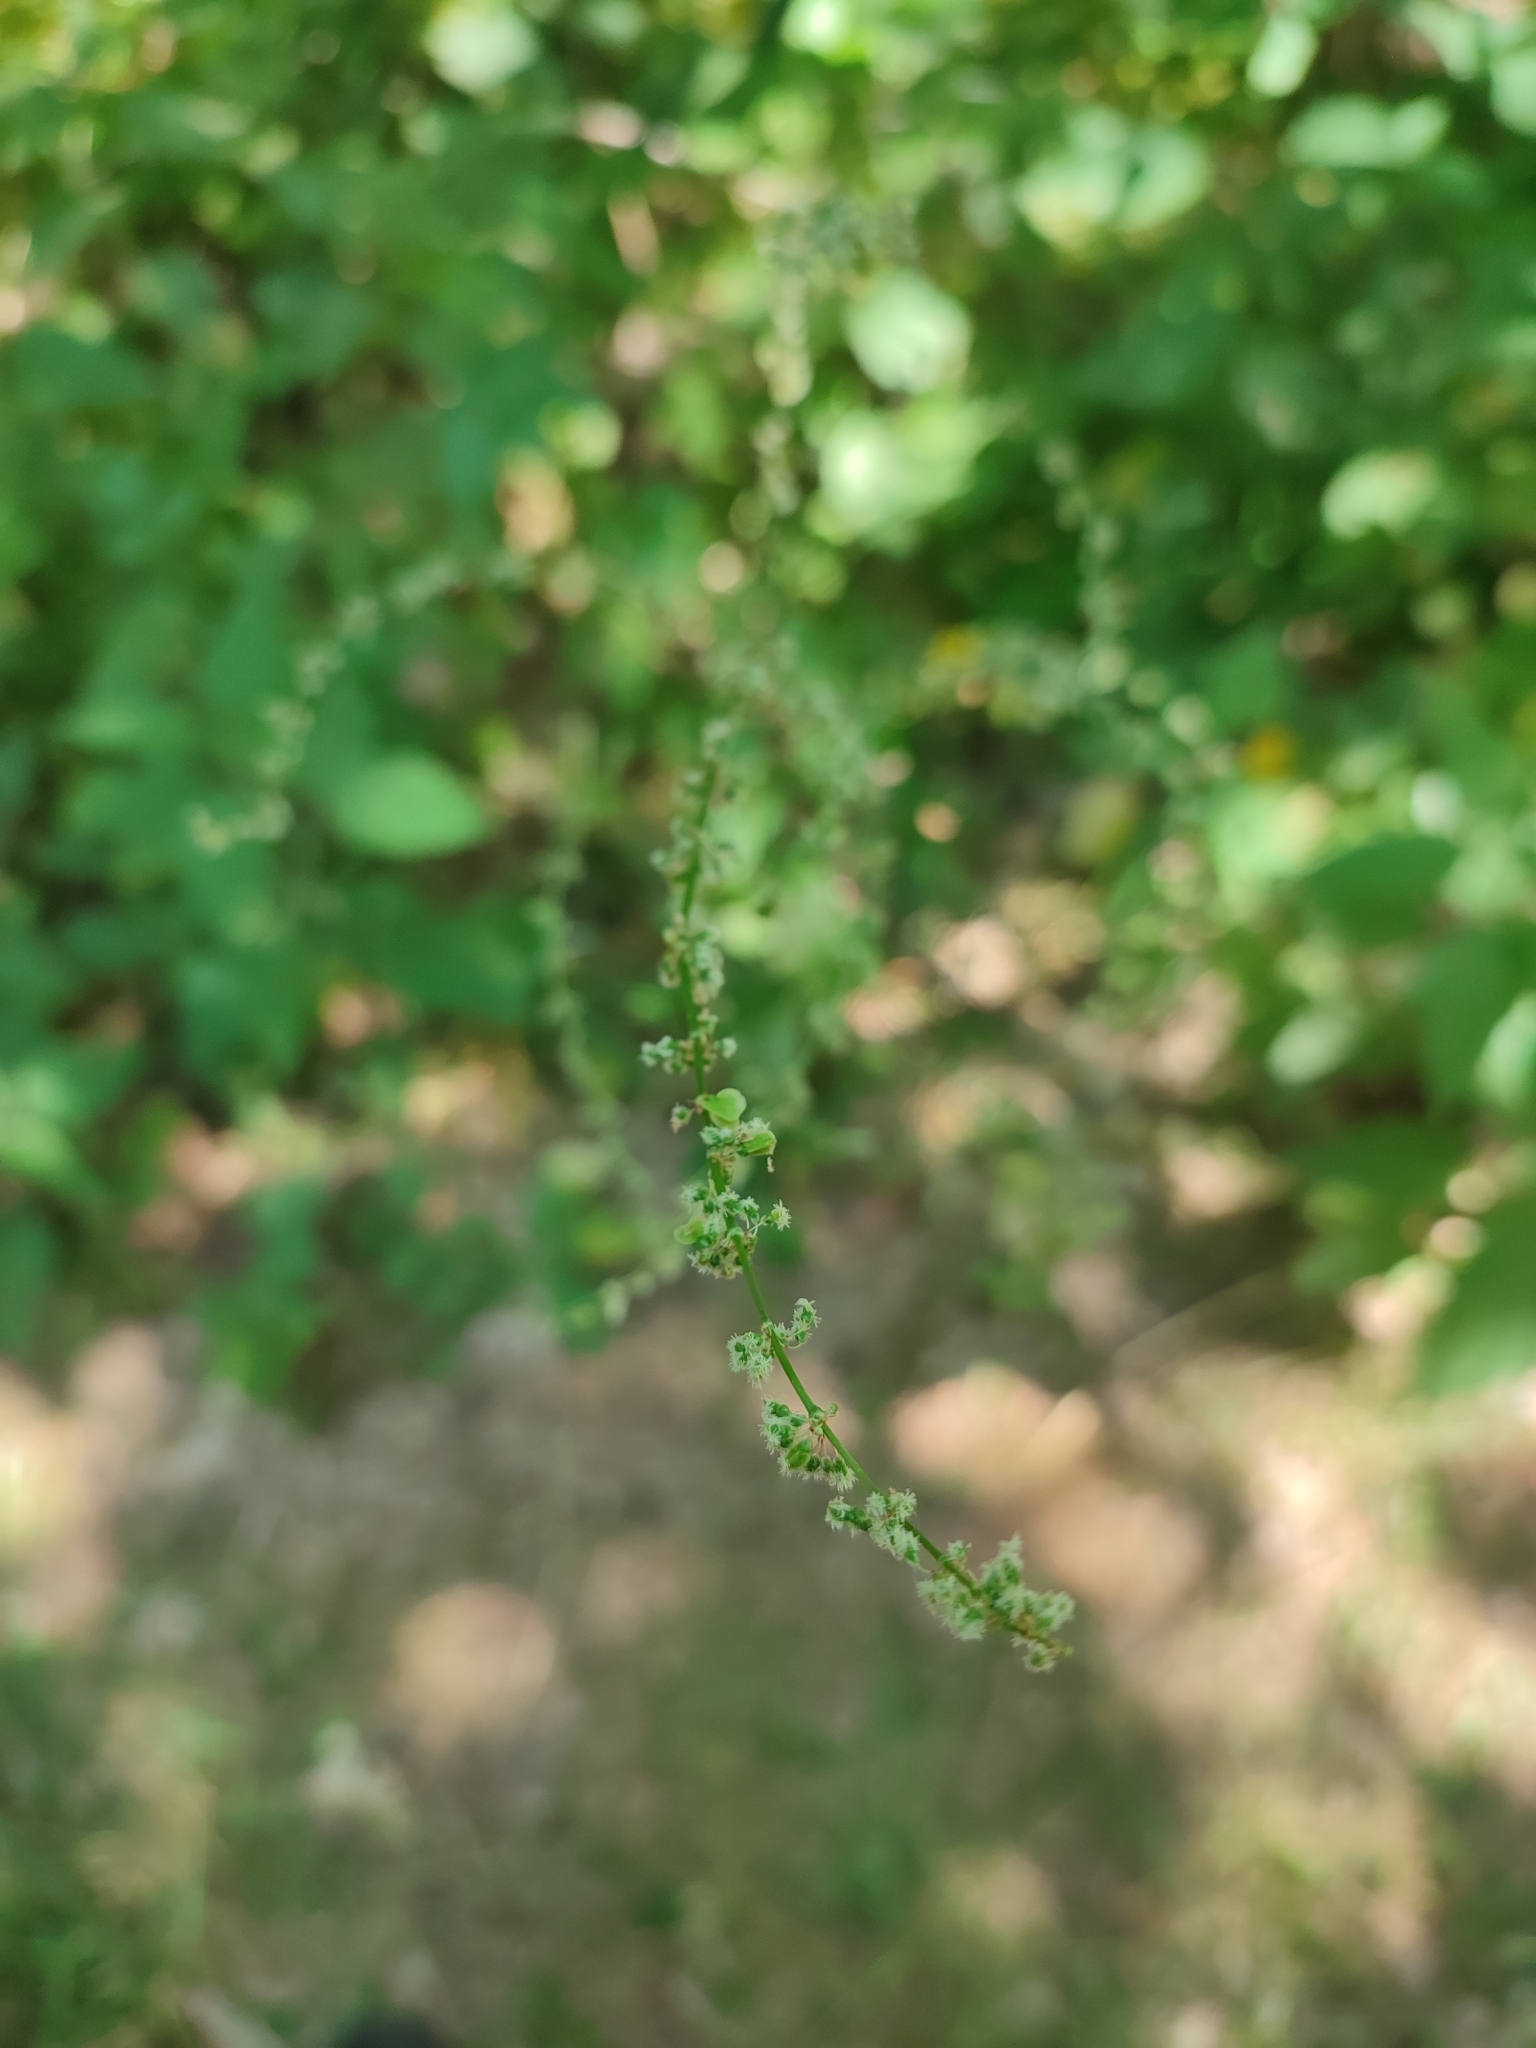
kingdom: Plantae
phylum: Tracheophyta
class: Magnoliopsida
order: Caryophyllales
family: Polygonaceae
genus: Rumex
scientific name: Rumex acetosa
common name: Garden sorrel
